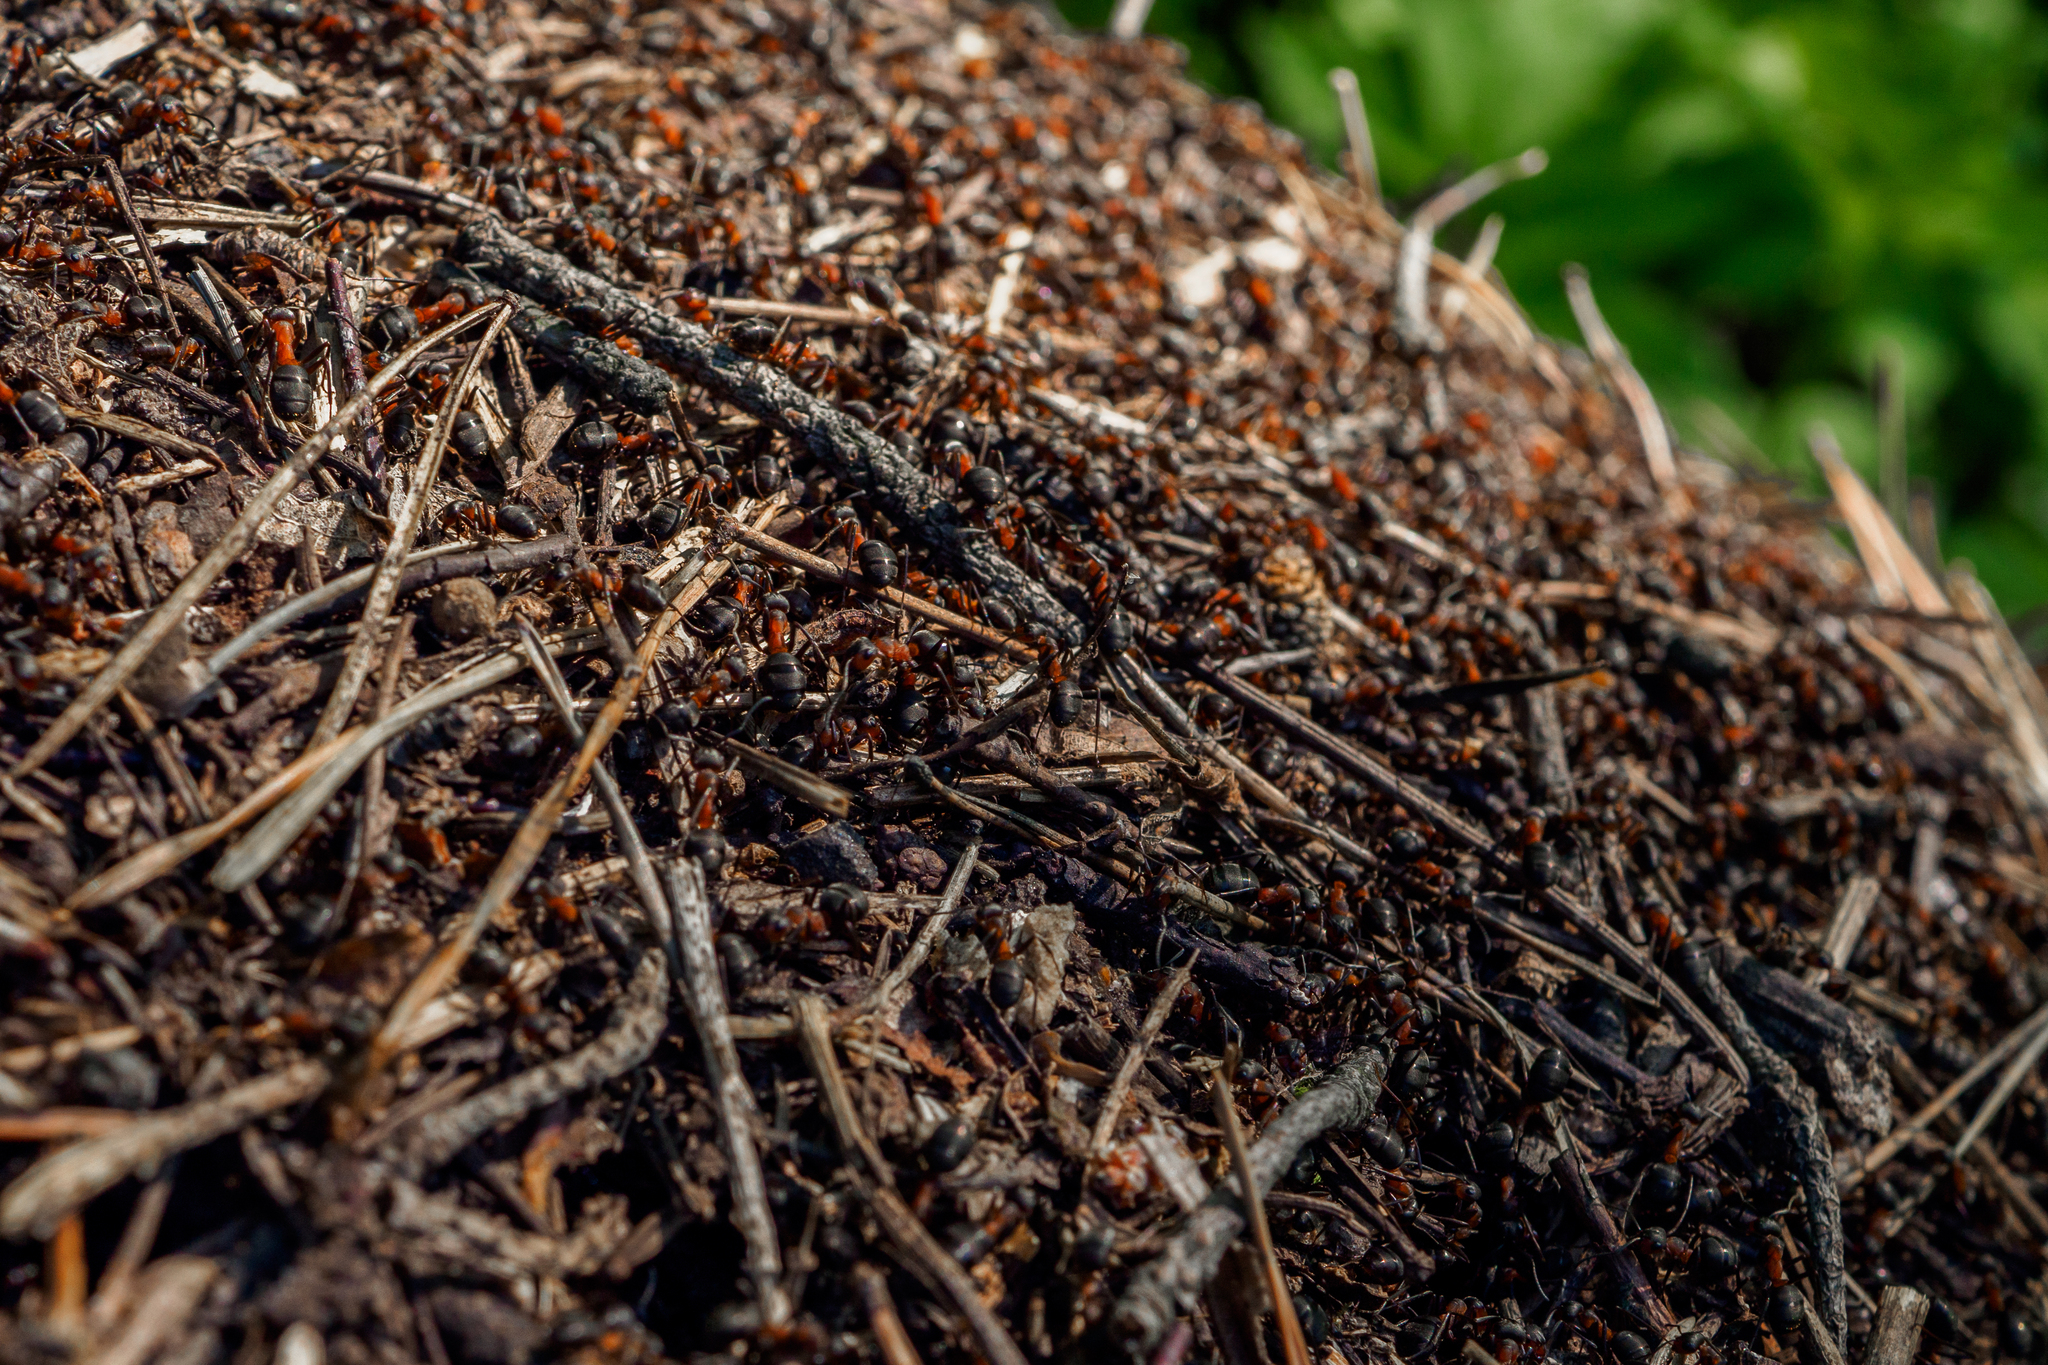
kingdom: Animalia
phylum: Arthropoda
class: Insecta
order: Hymenoptera
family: Formicidae
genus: Formica
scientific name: Formica rufa
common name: Red wood ant
